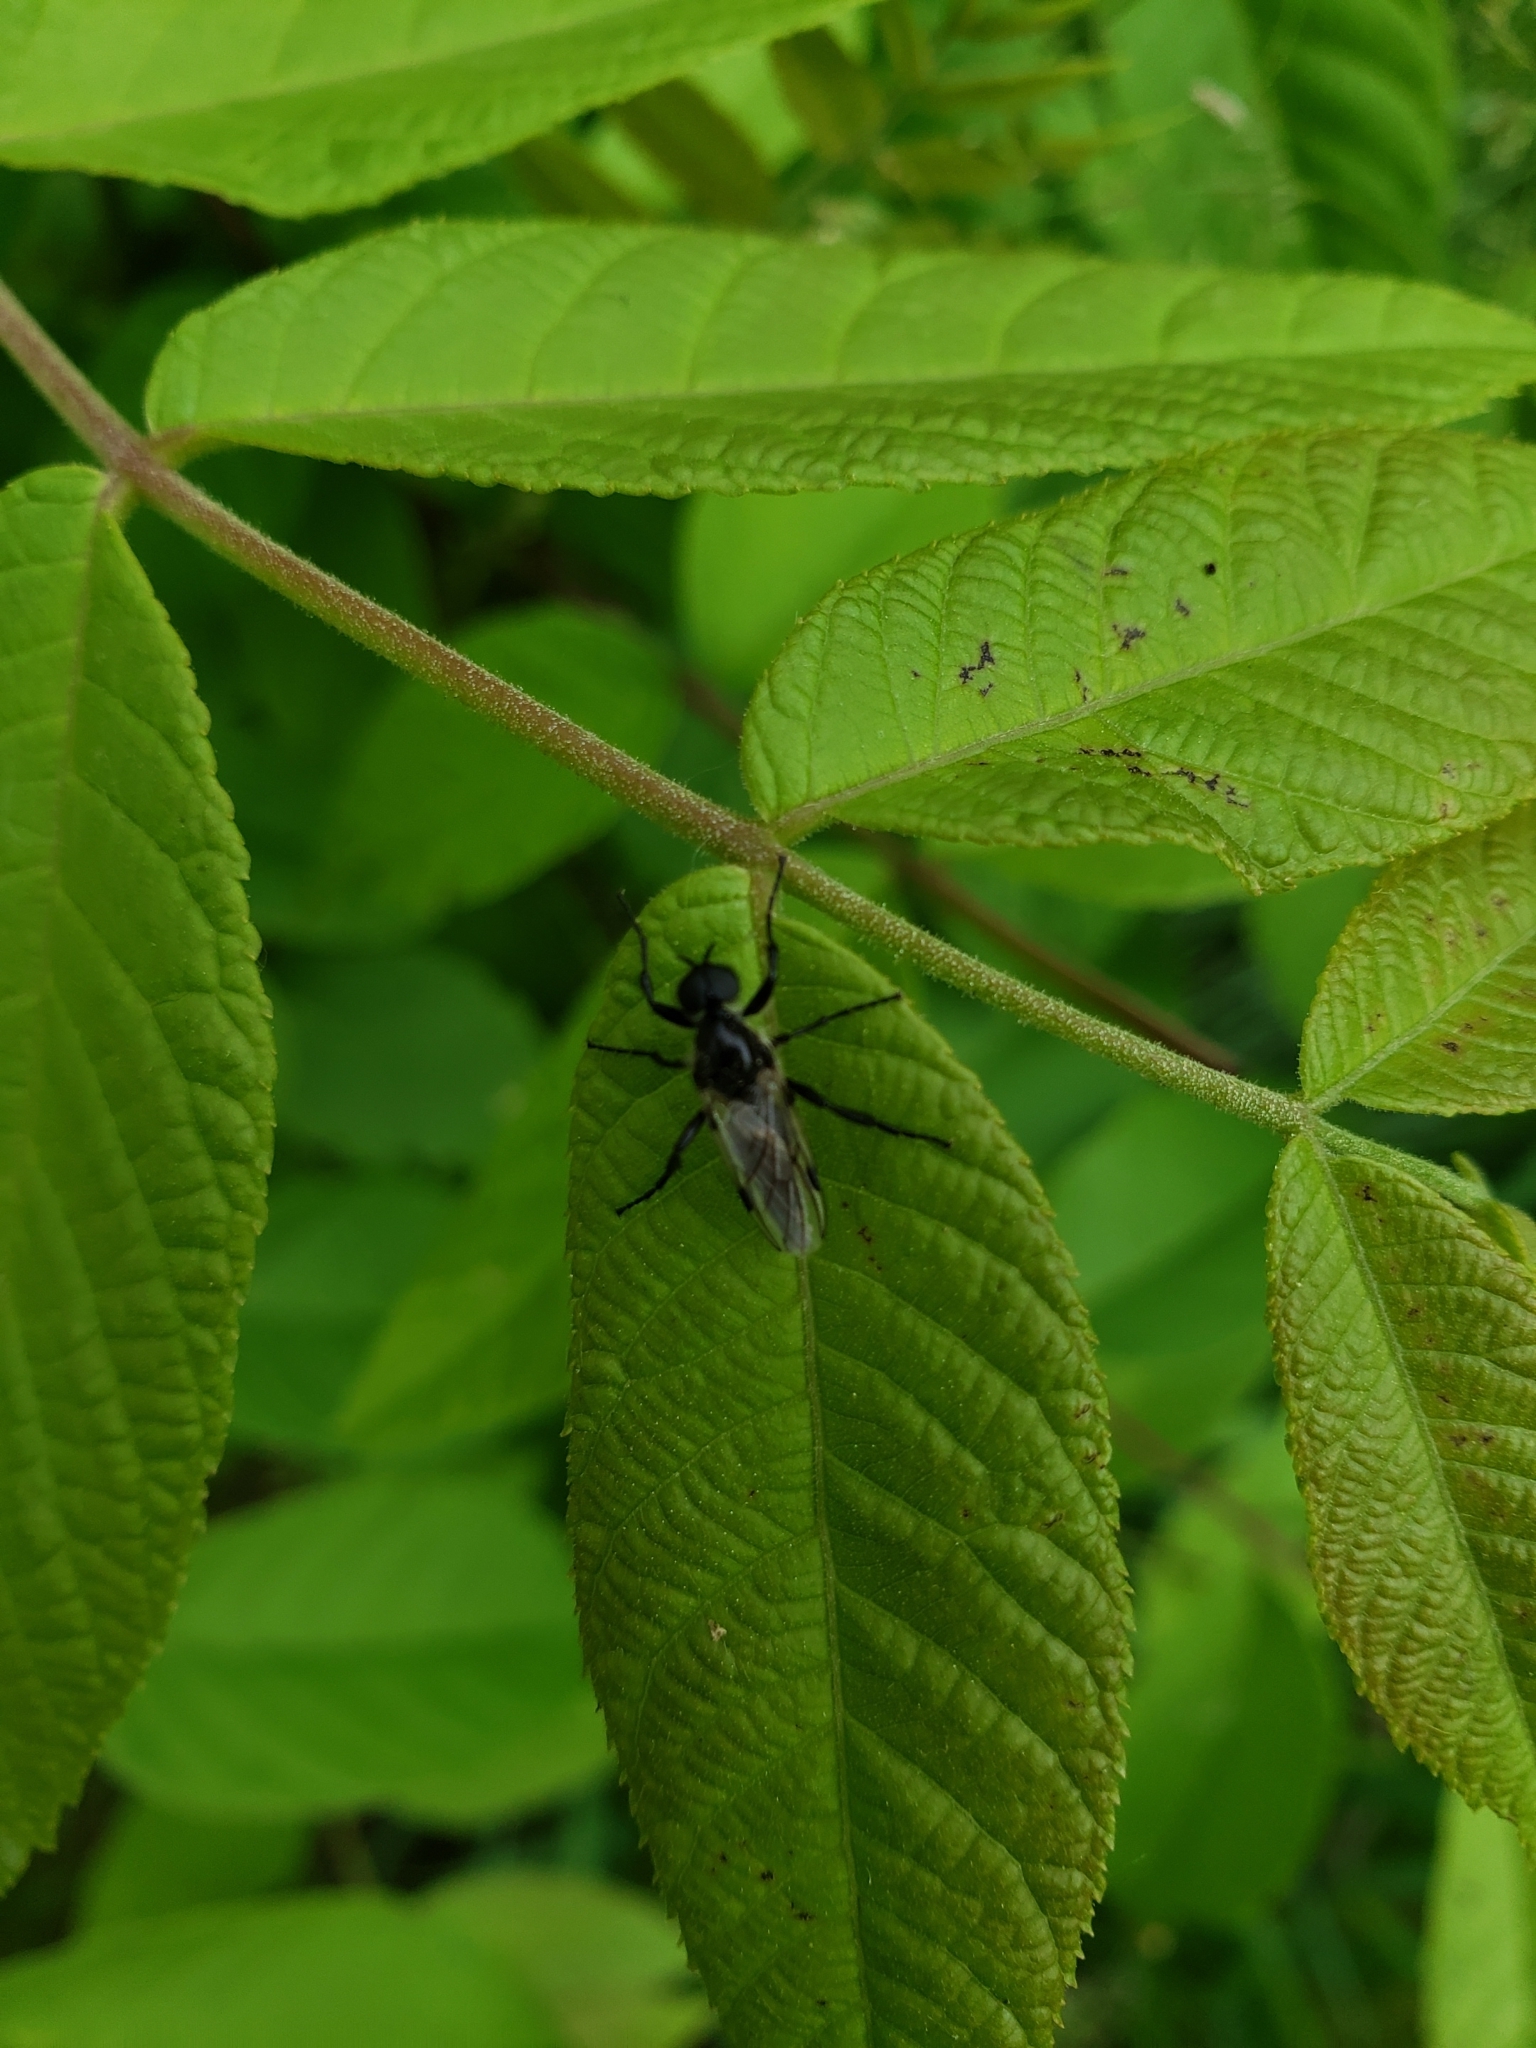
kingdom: Animalia
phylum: Arthropoda
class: Insecta
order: Diptera
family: Bibionidae
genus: Bibio
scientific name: Bibio albipennis
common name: White-winged march fly
